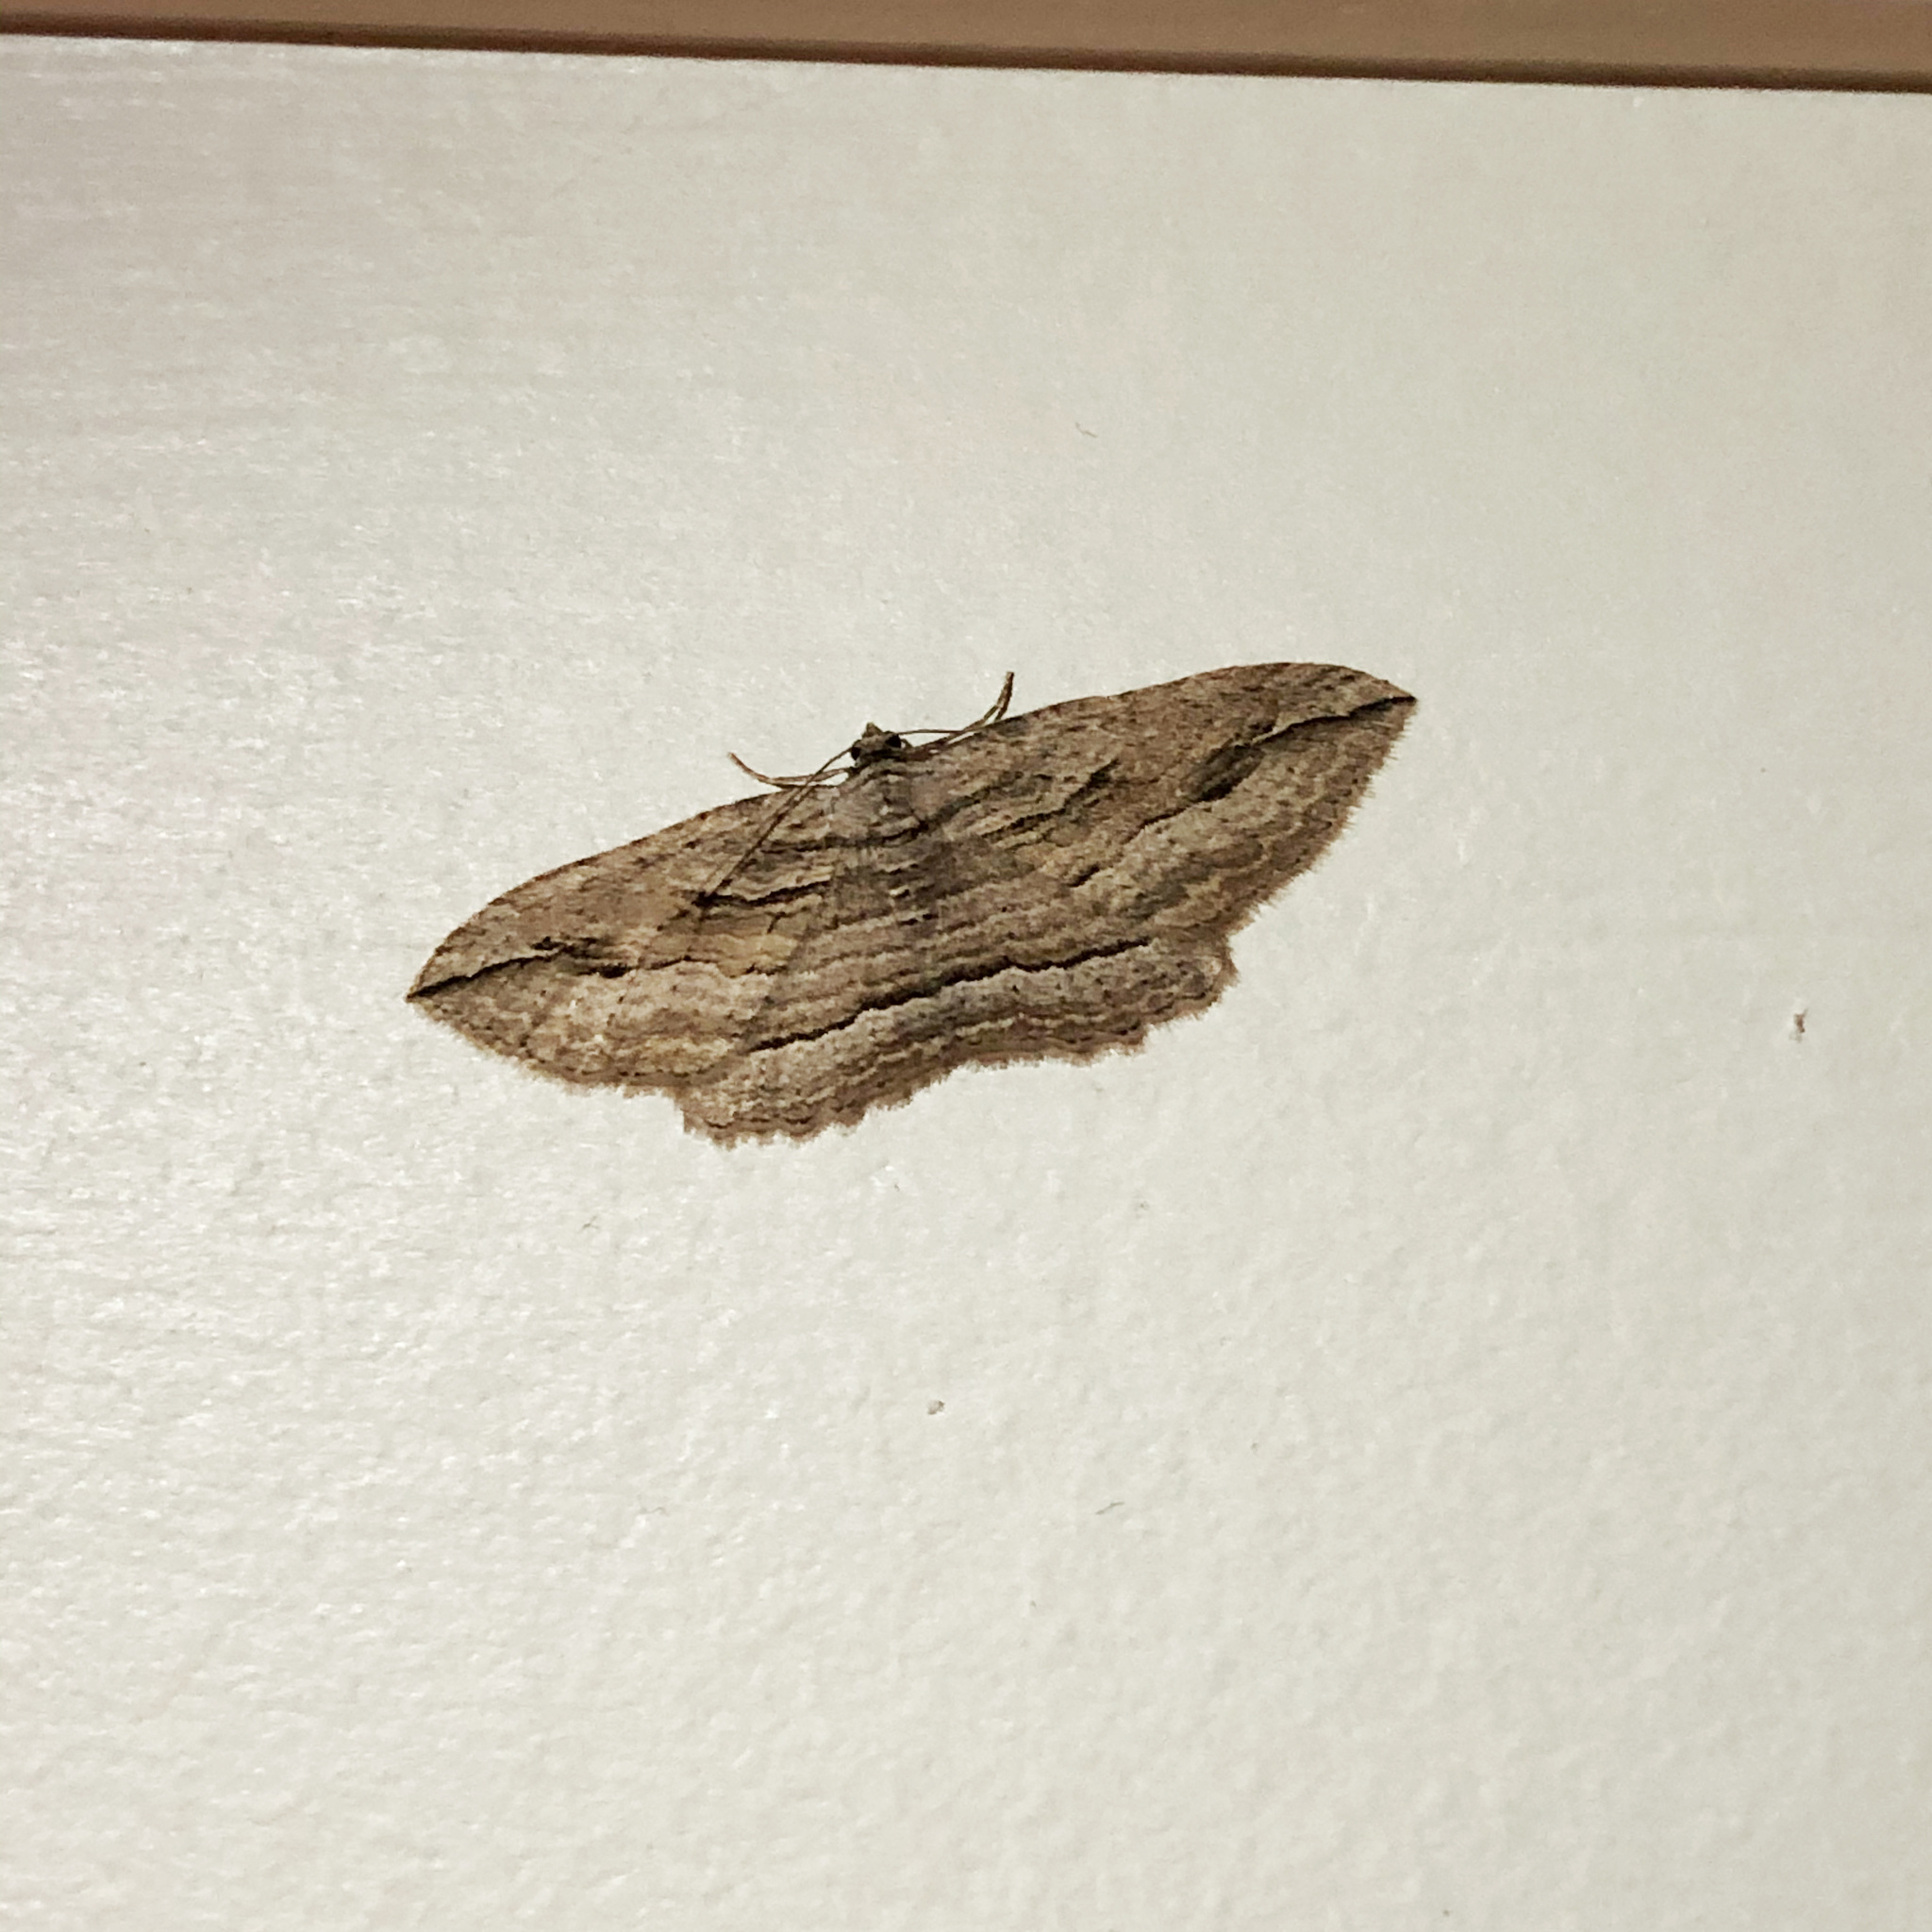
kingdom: Animalia
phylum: Arthropoda
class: Insecta
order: Lepidoptera
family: Geometridae
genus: Austrocidaria
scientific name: Austrocidaria gobiata
